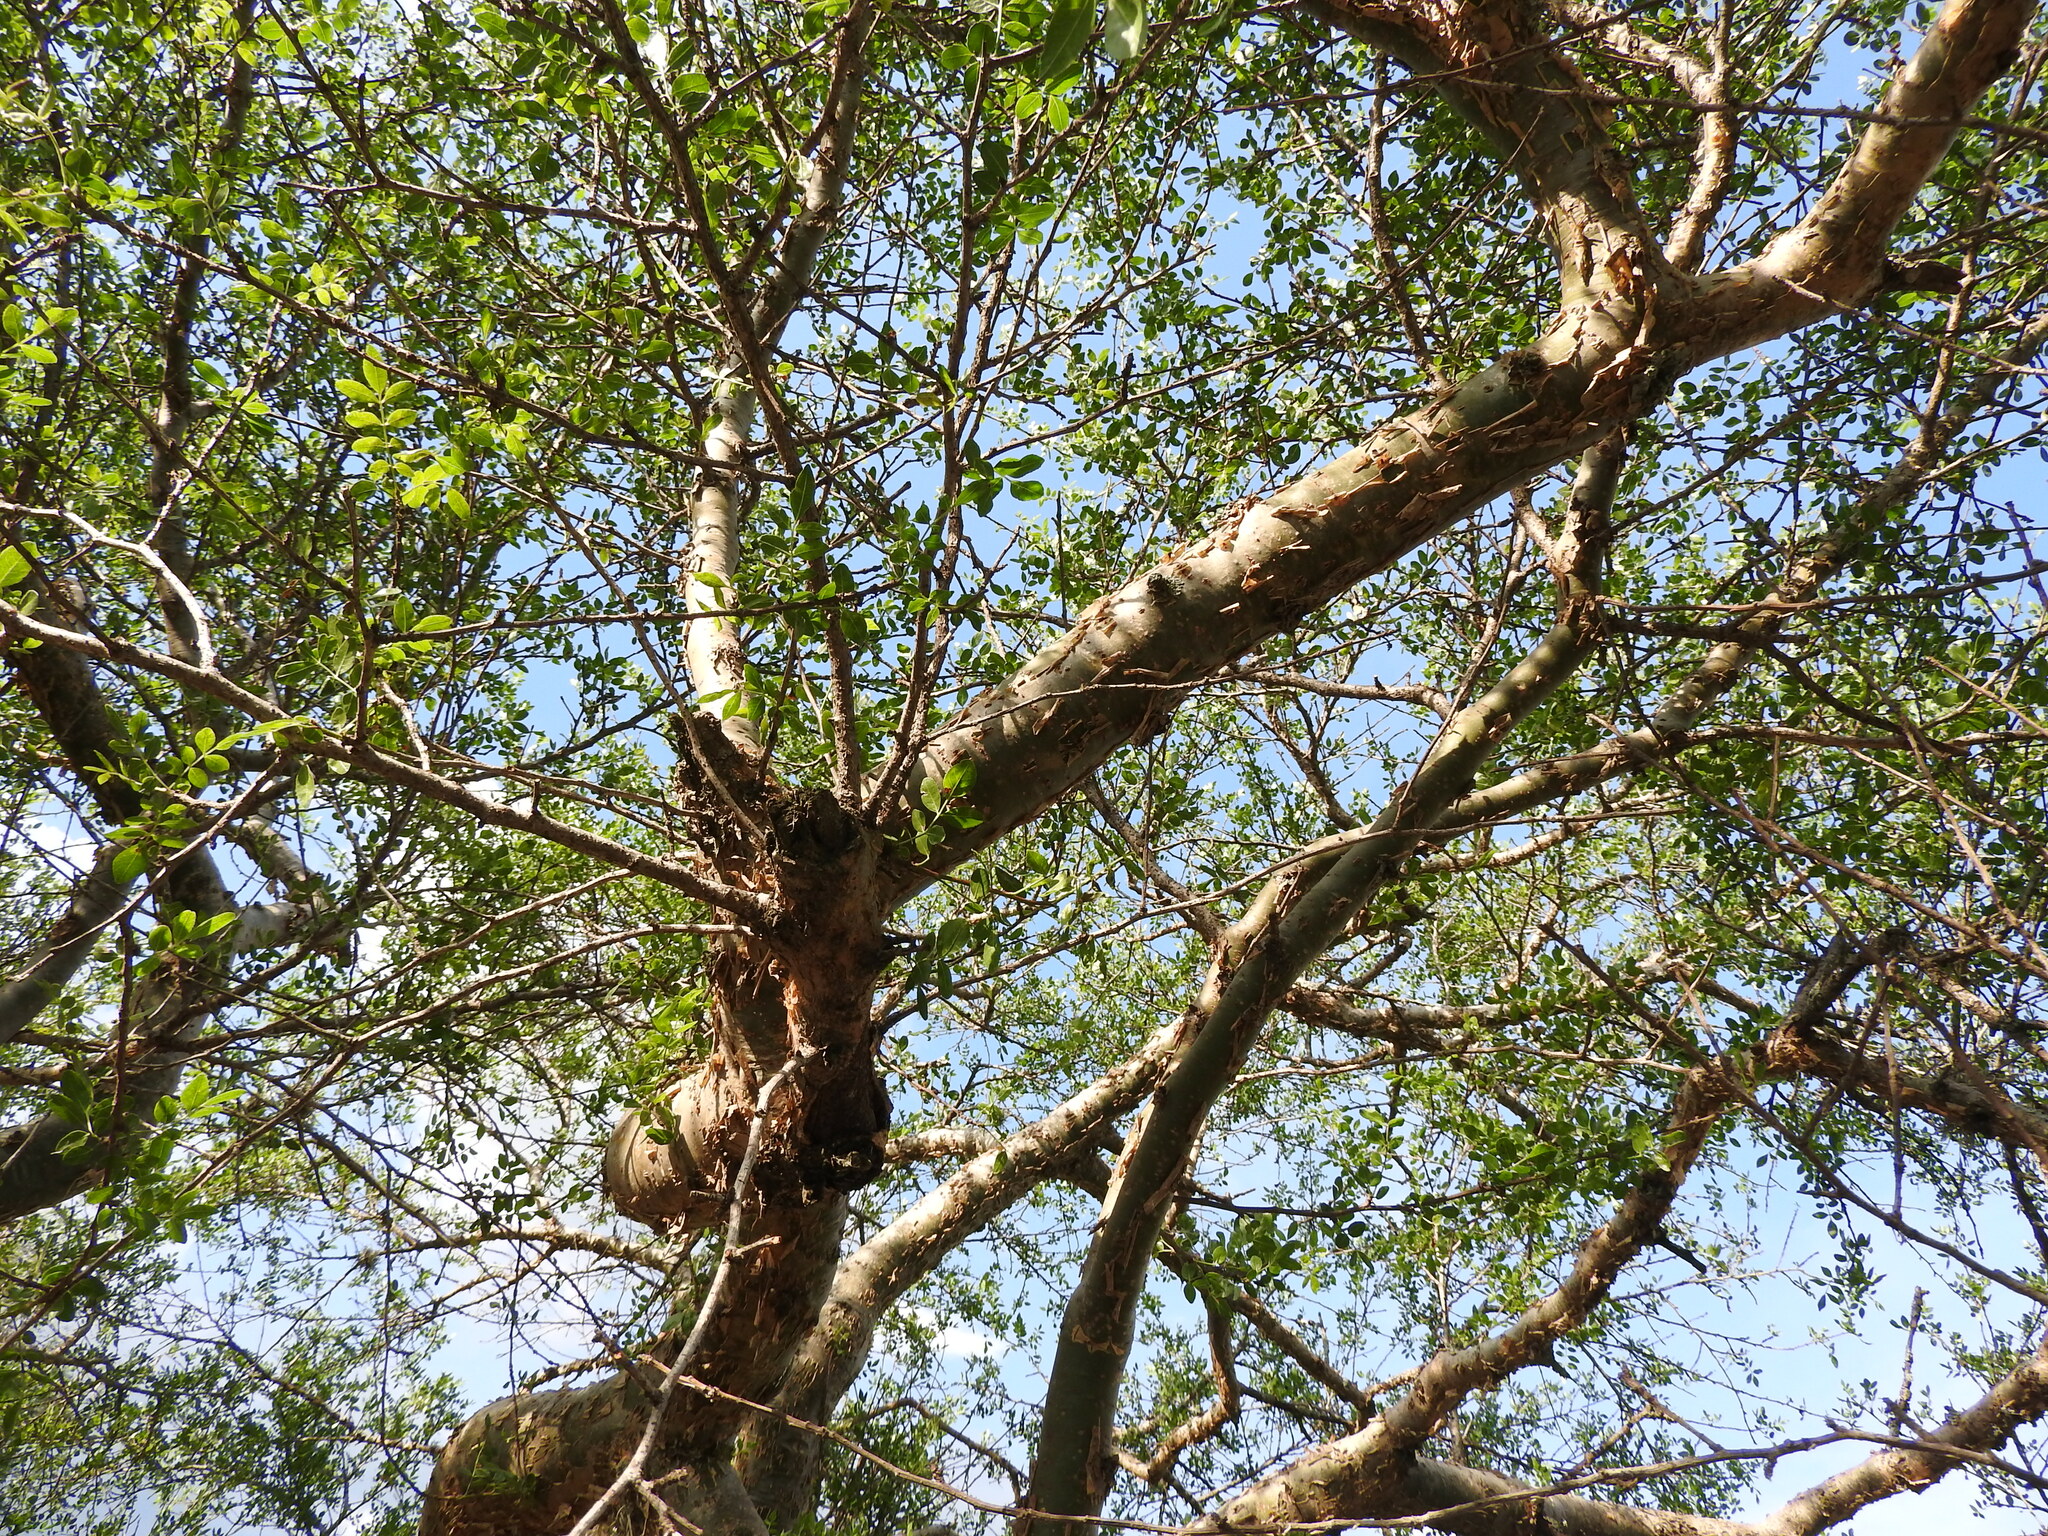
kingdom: Plantae
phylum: Tracheophyta
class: Magnoliopsida
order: Sapindales
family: Burseraceae
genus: Bursera
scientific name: Bursera fagaroides
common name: Elephant tree
